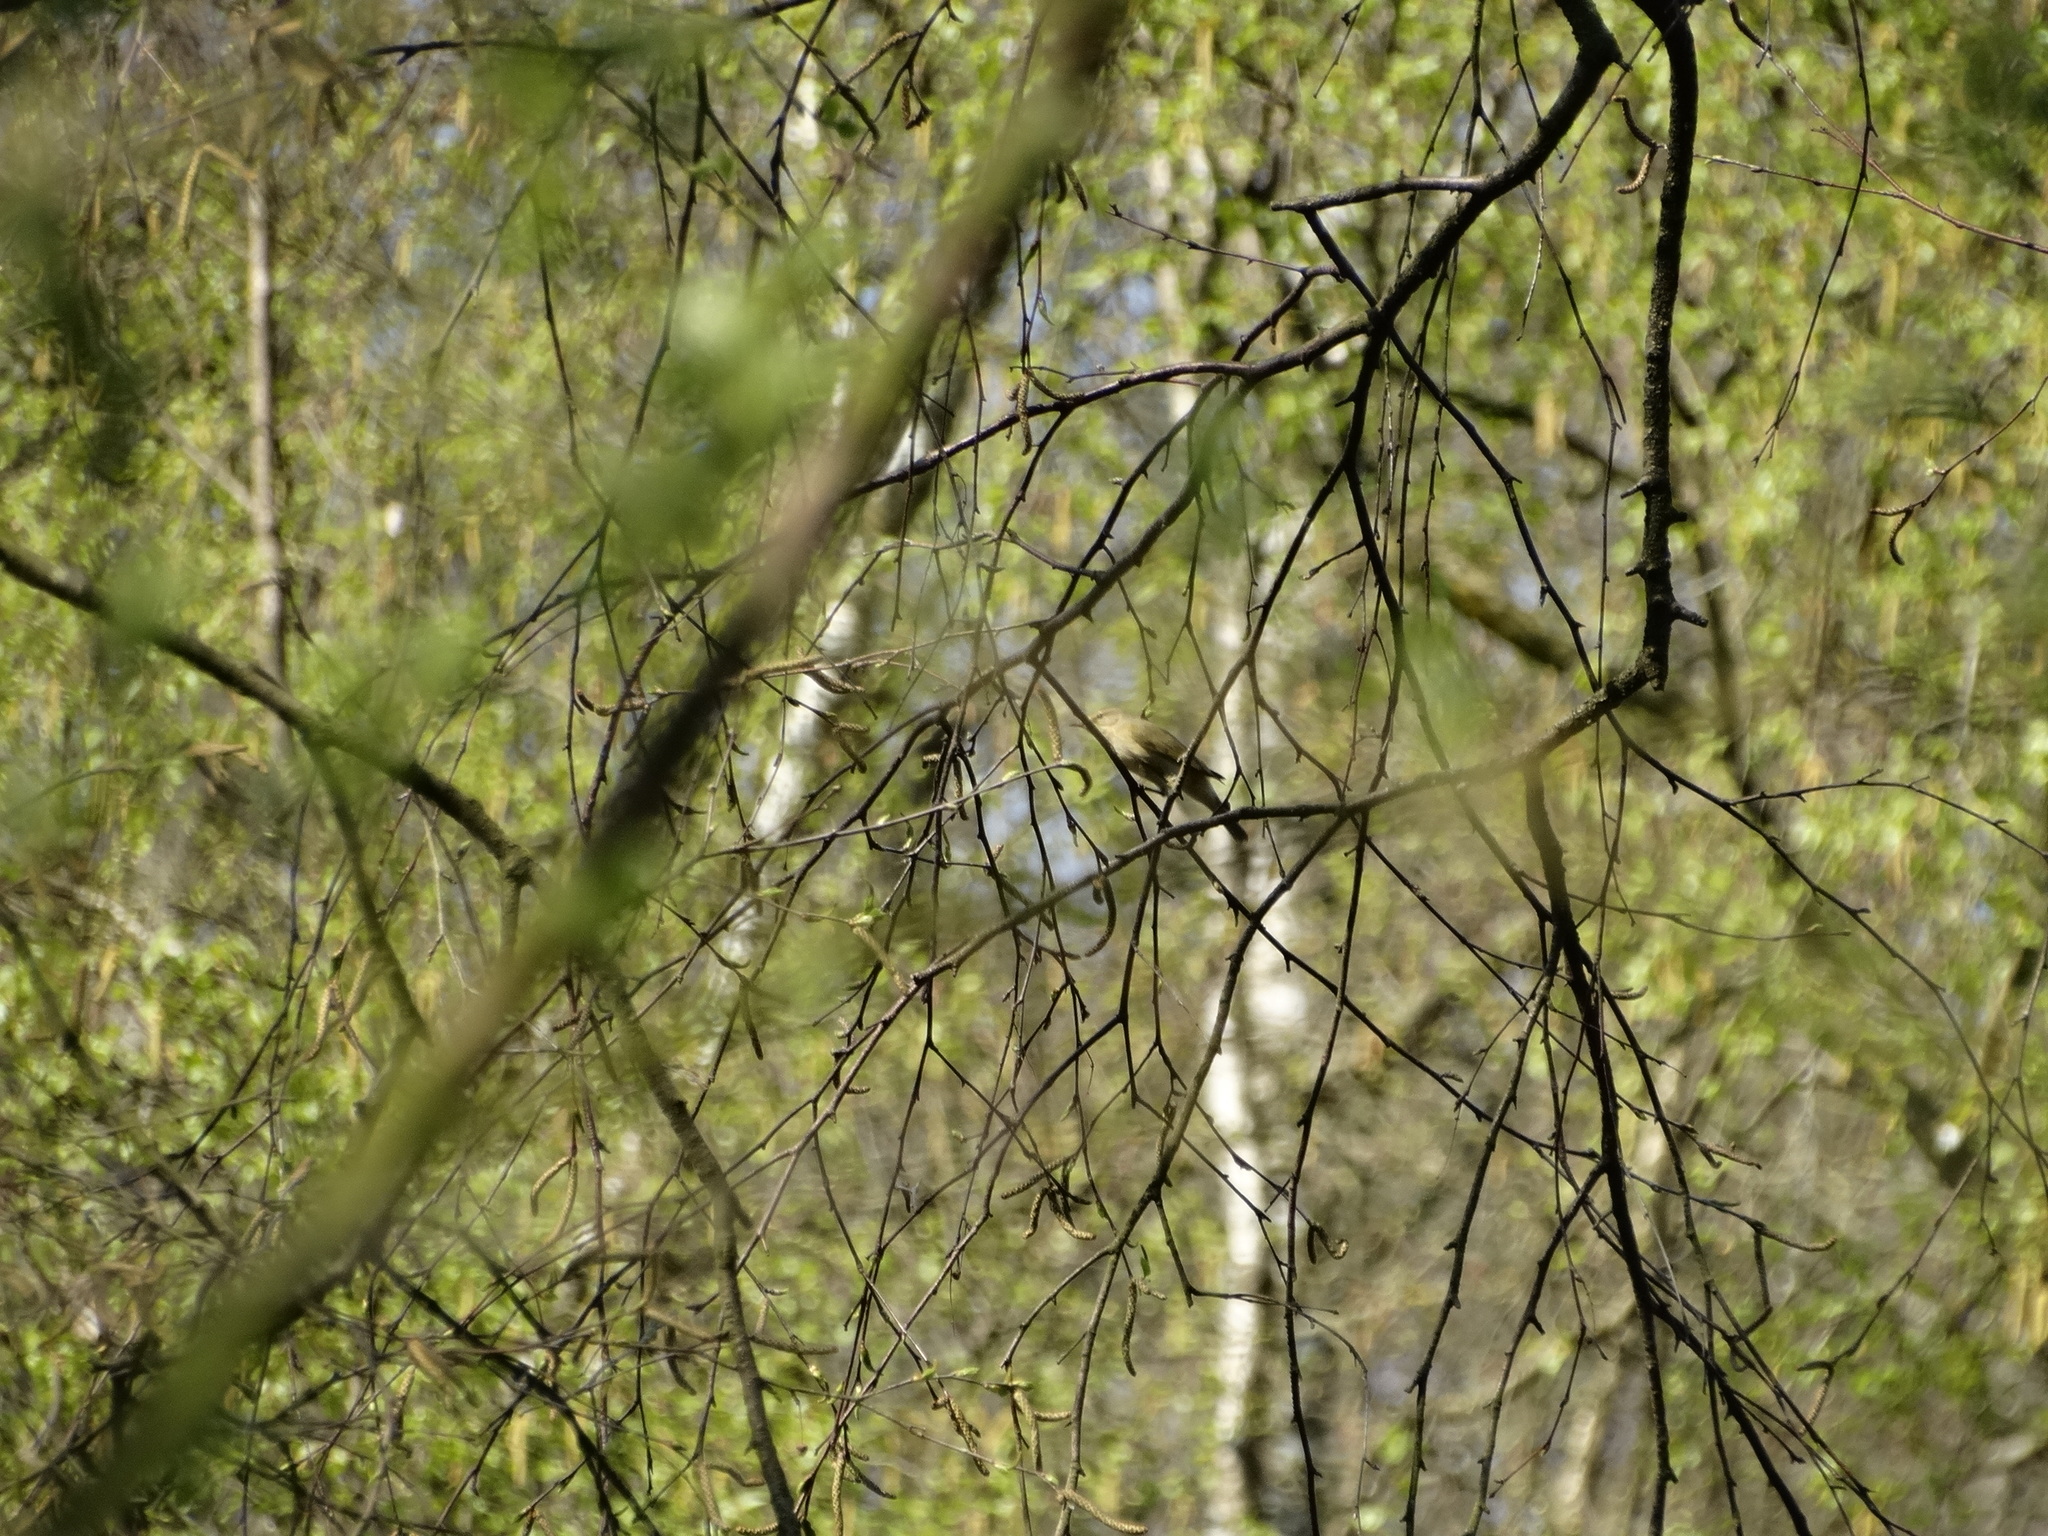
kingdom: Animalia
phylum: Chordata
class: Aves
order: Passeriformes
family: Phylloscopidae
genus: Phylloscopus
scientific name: Phylloscopus collybita
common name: Common chiffchaff
